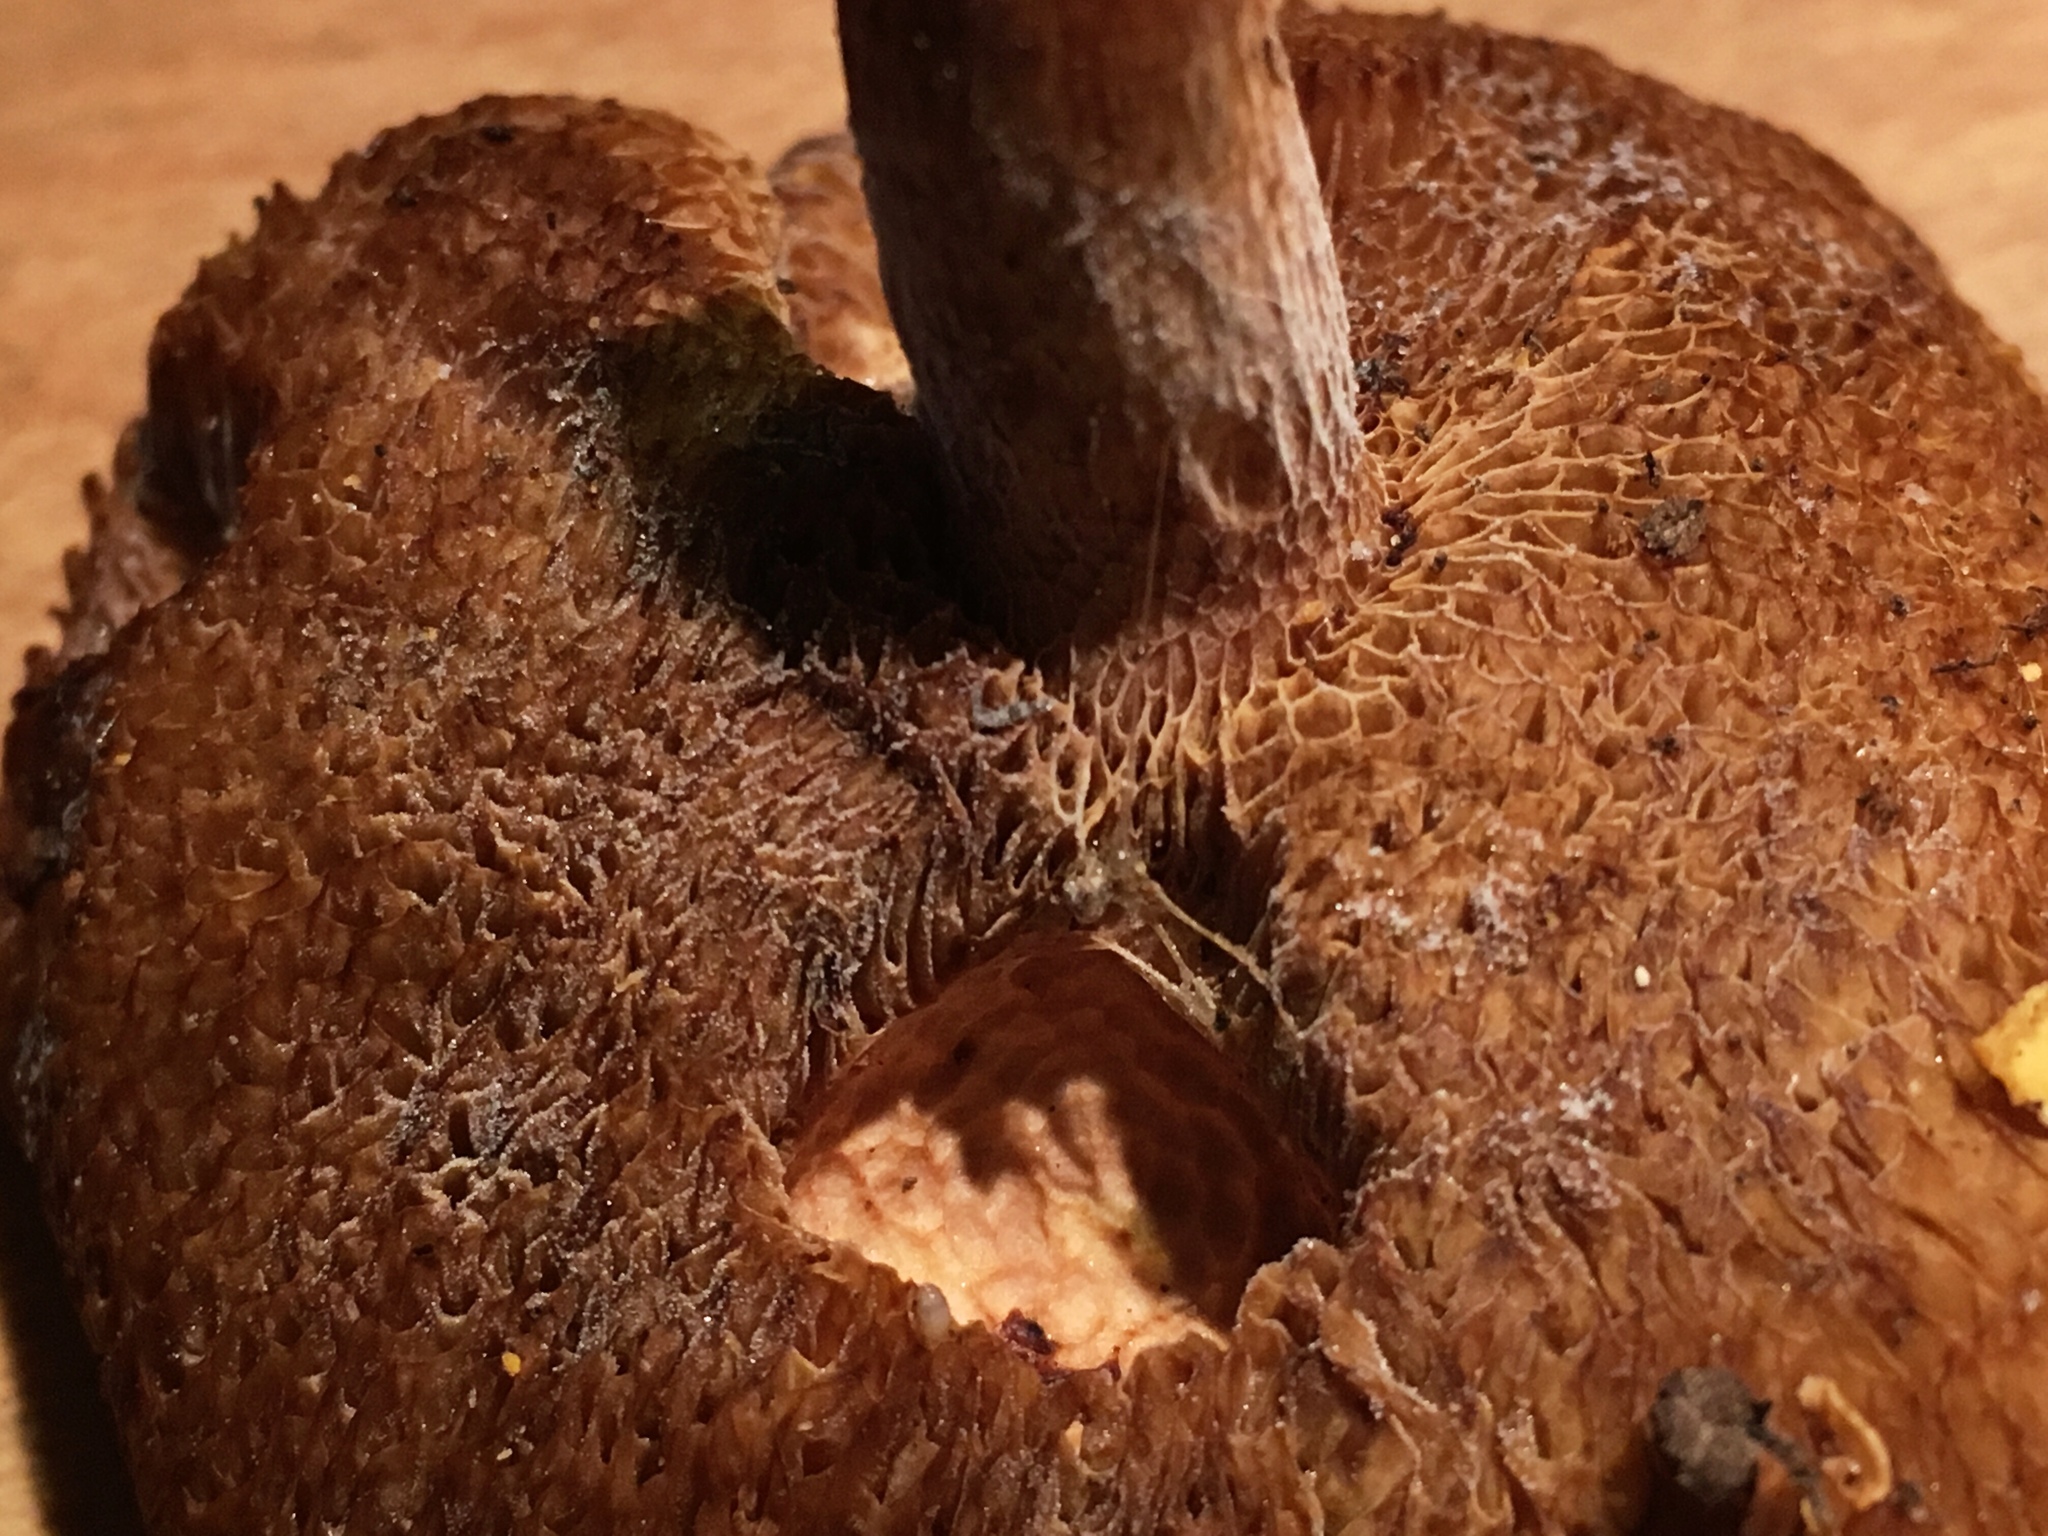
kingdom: Fungi
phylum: Basidiomycota
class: Agaricomycetes
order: Boletales
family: Boletaceae
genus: Bothia
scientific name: Bothia castanella
